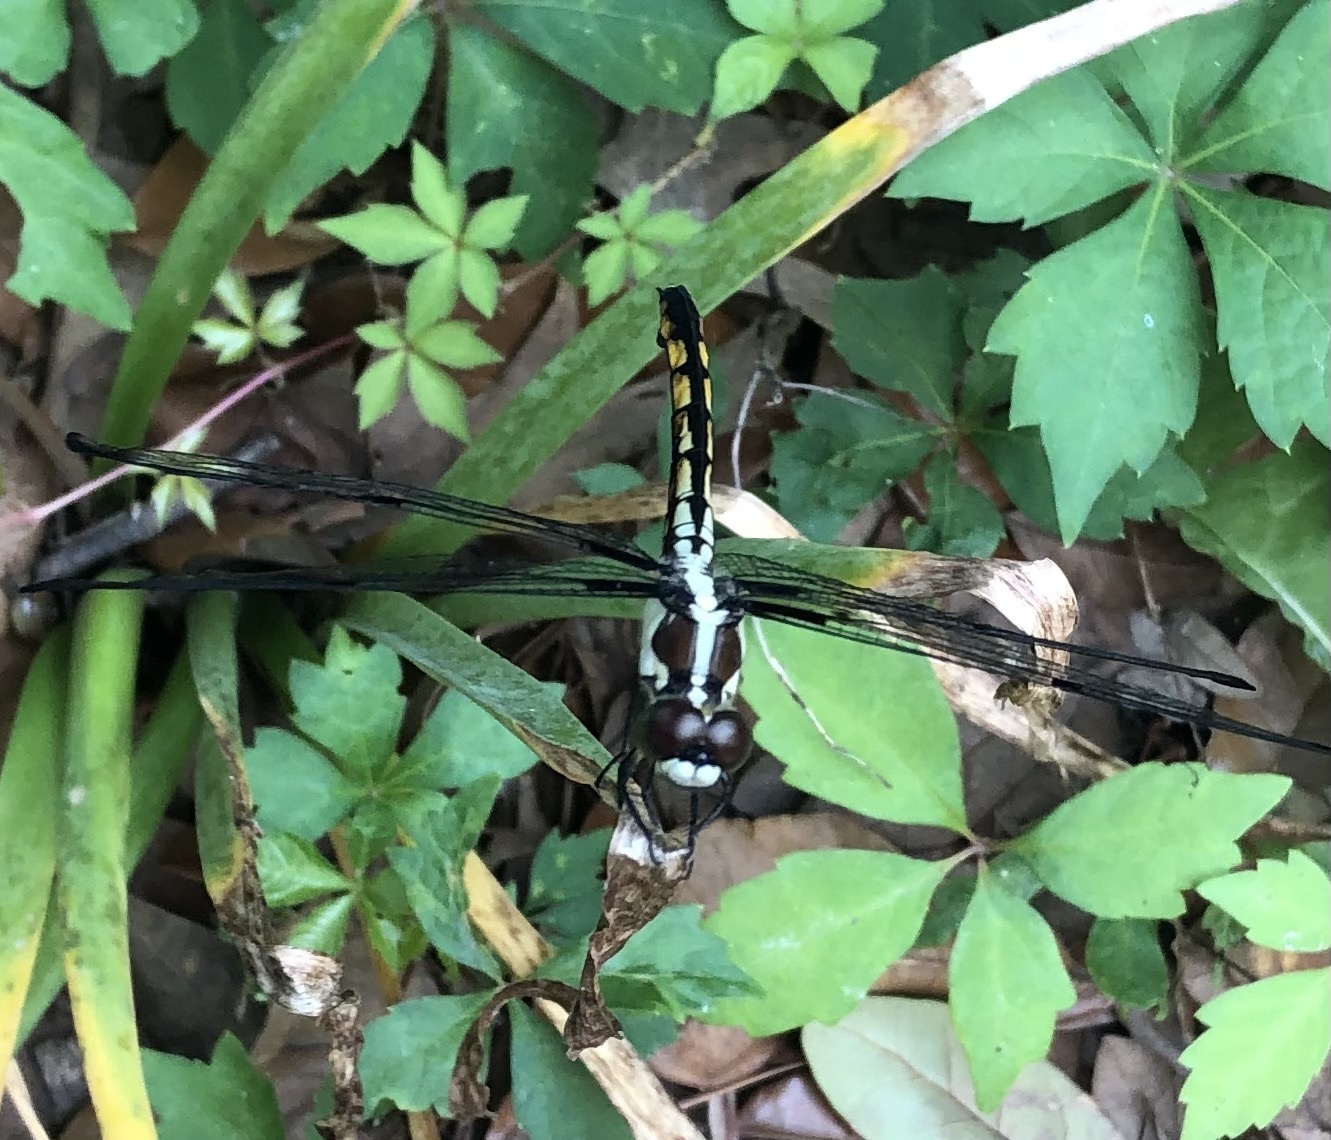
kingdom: Animalia
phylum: Arthropoda
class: Insecta
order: Odonata
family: Libellulidae
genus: Libellula
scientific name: Libellula vibrans
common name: Great blue skimmer
